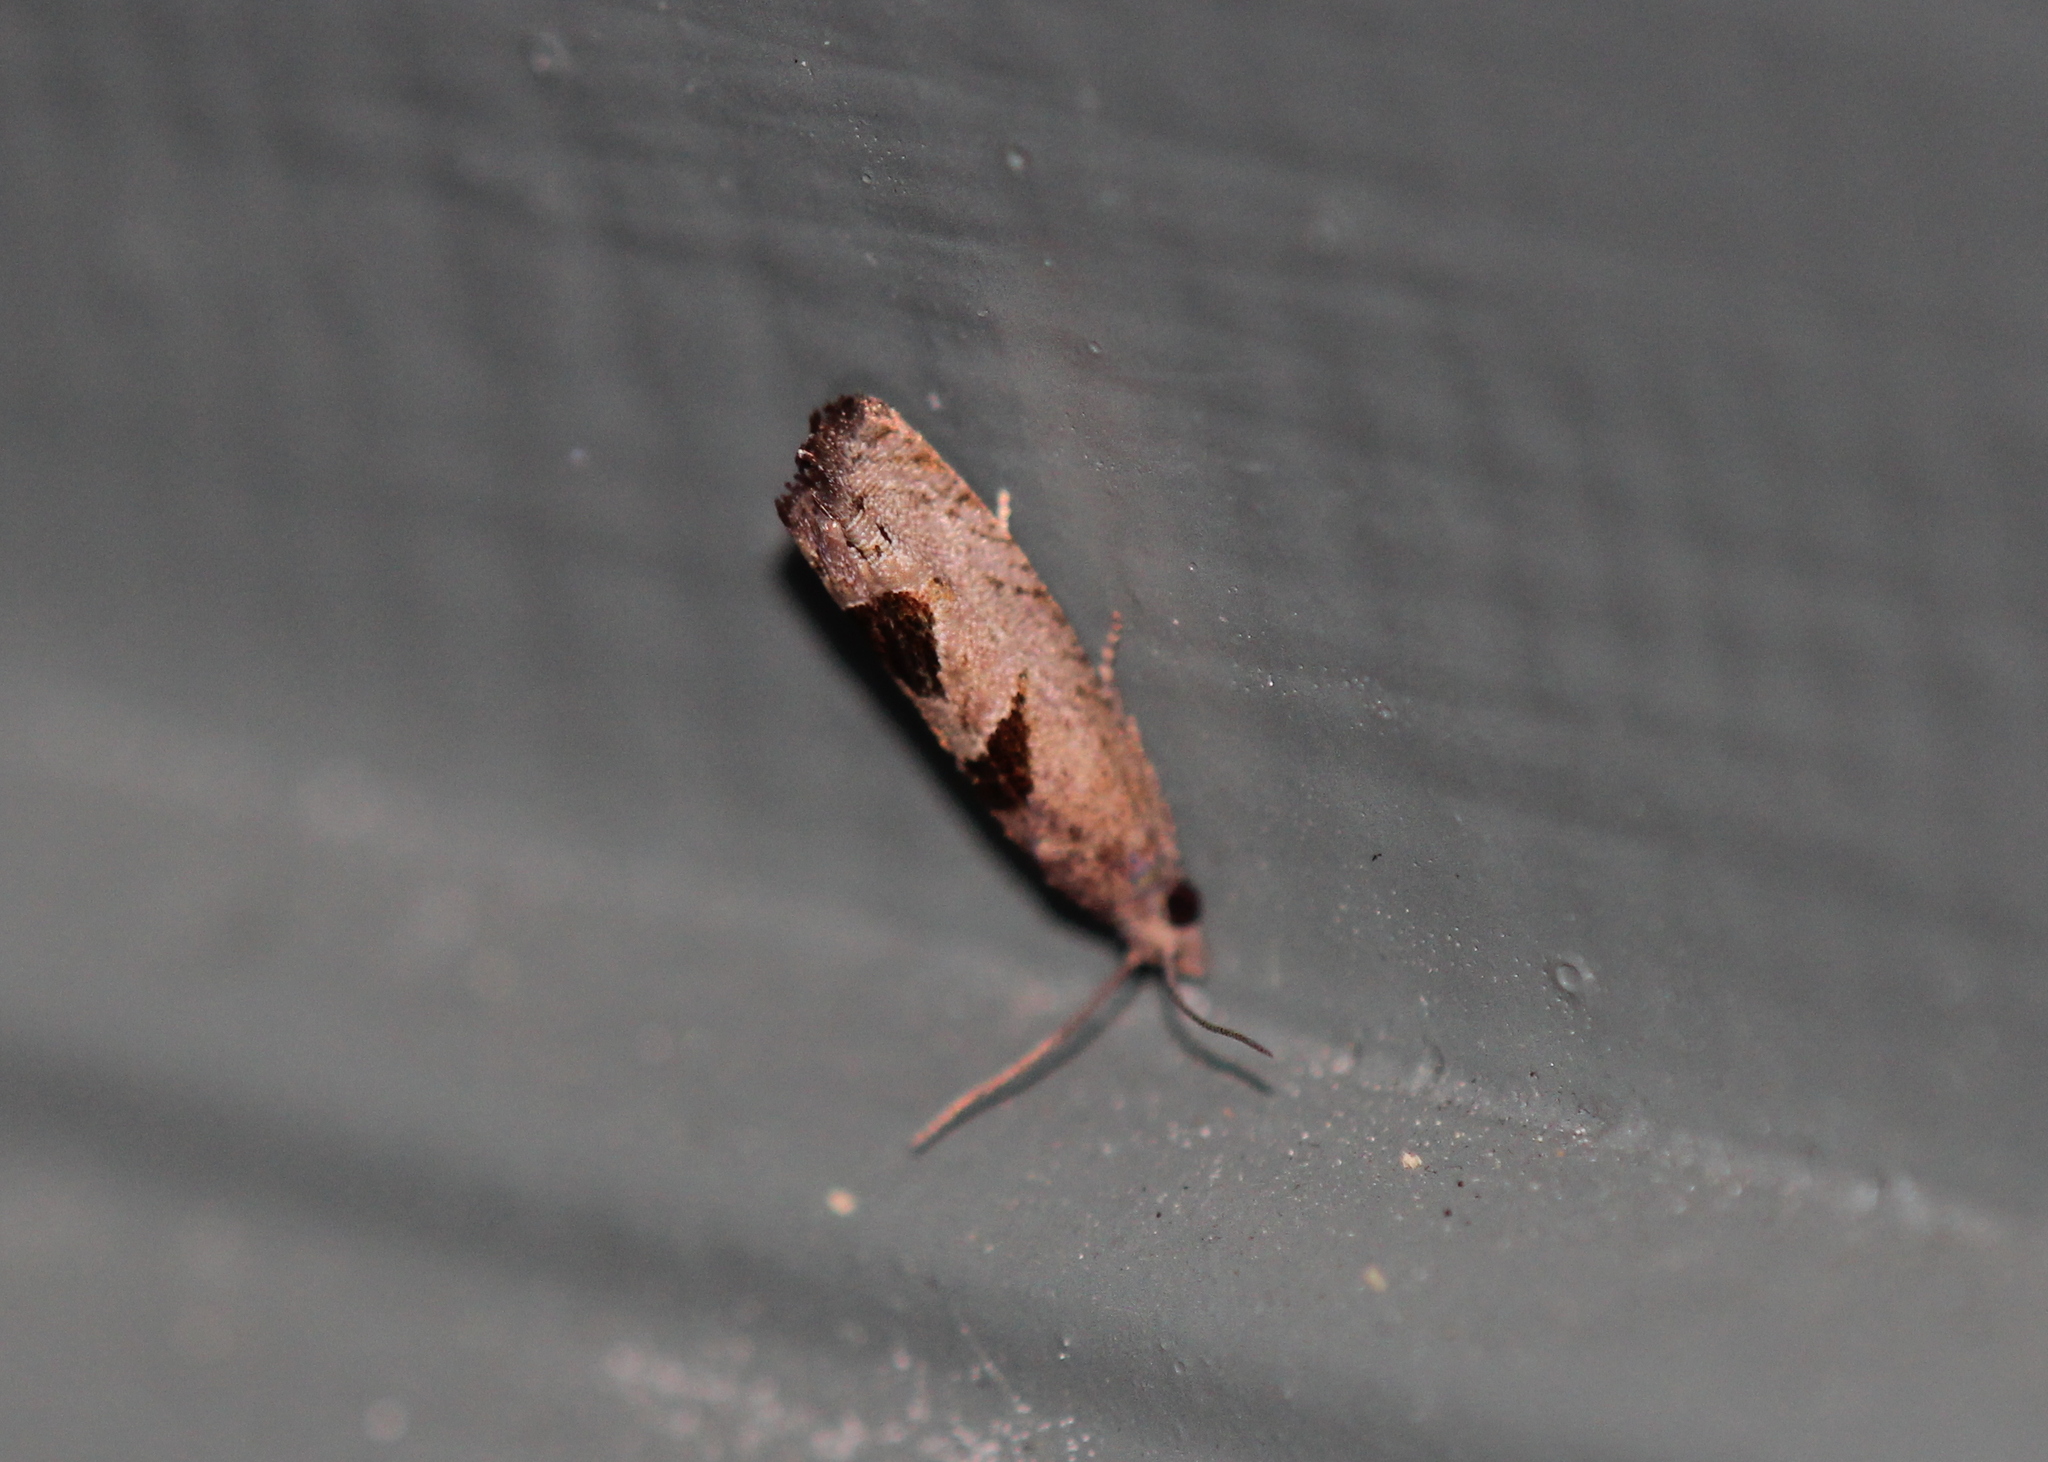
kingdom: Animalia
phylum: Arthropoda
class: Insecta
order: Lepidoptera
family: Tortricidae
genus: Eucosma
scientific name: Eucosma tomonana
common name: Aster-head eucosma moth
